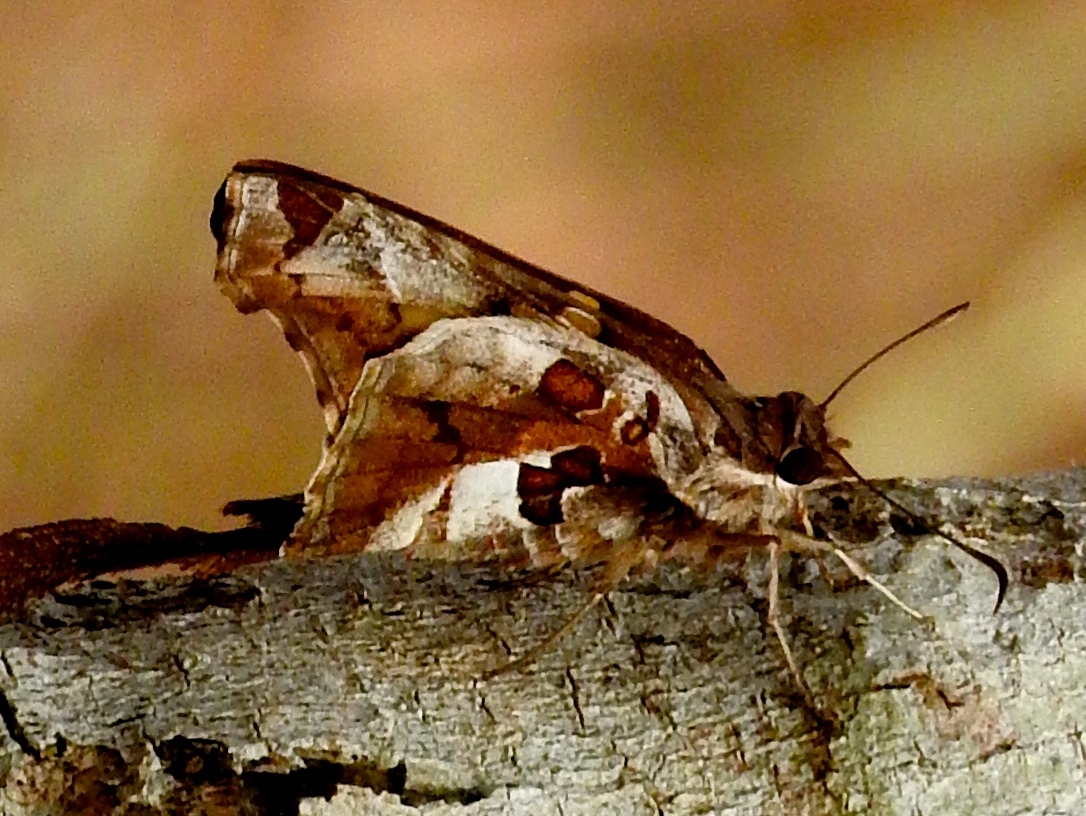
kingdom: Animalia
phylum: Arthropoda
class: Insecta
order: Lepidoptera
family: Hesperiidae
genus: Chioides
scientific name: Chioides zilpa
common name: Zilpa longtail
